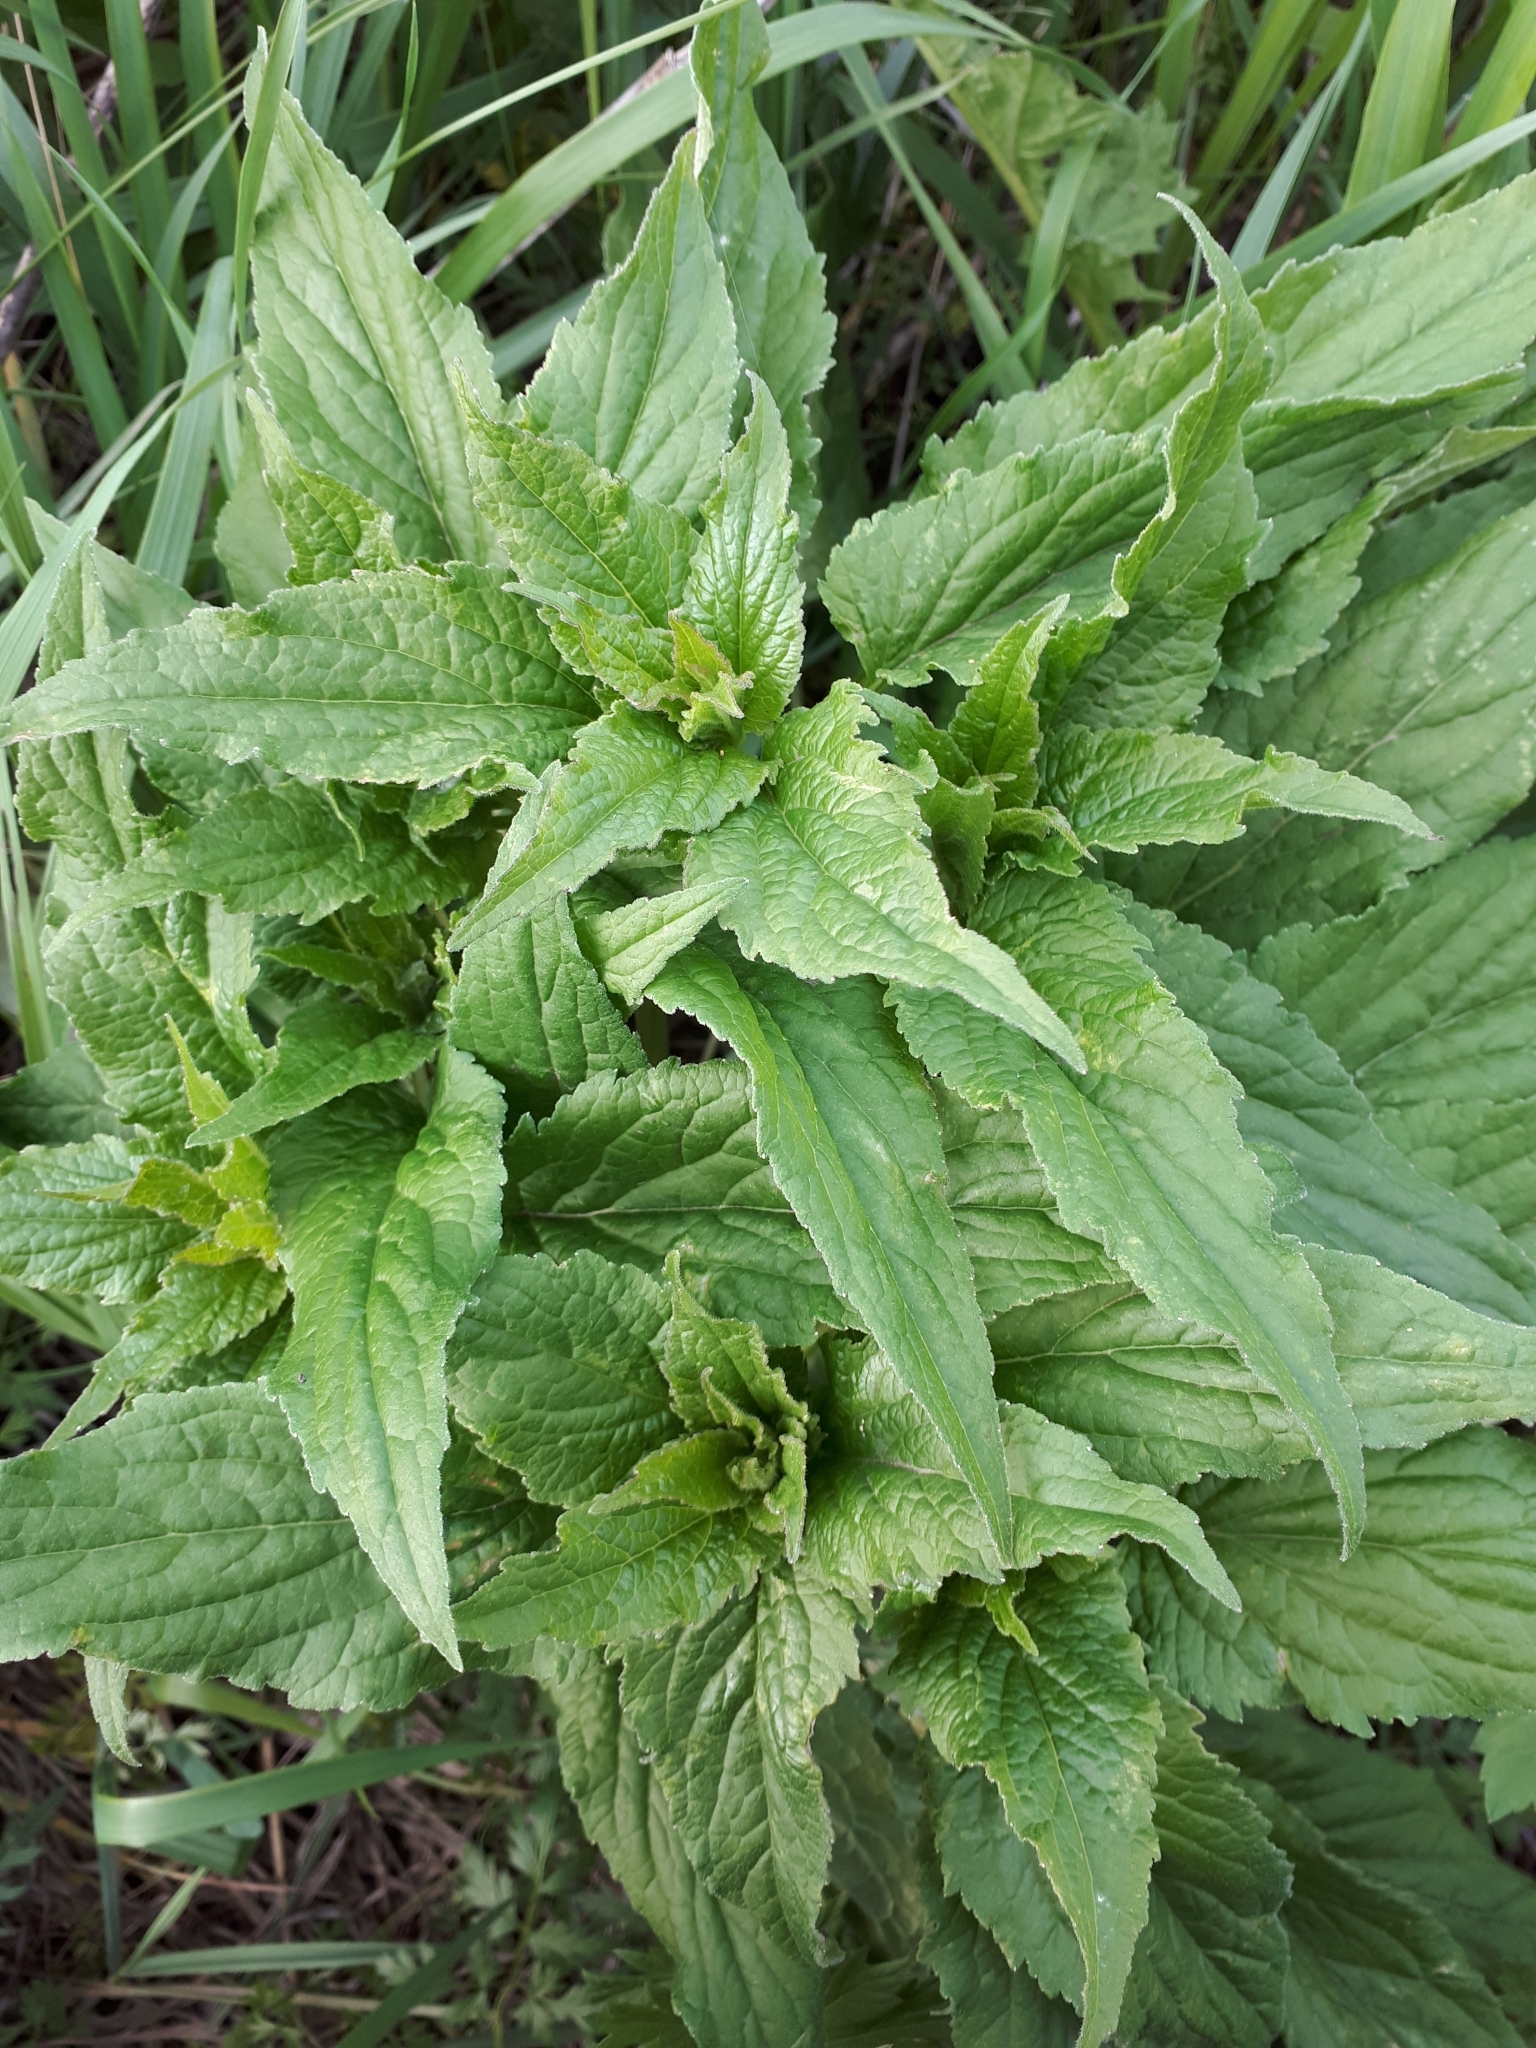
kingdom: Plantae
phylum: Tracheophyta
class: Magnoliopsida
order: Asterales
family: Campanulaceae
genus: Campanula
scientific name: Campanula rapunculoides
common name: Creeping bellflower
